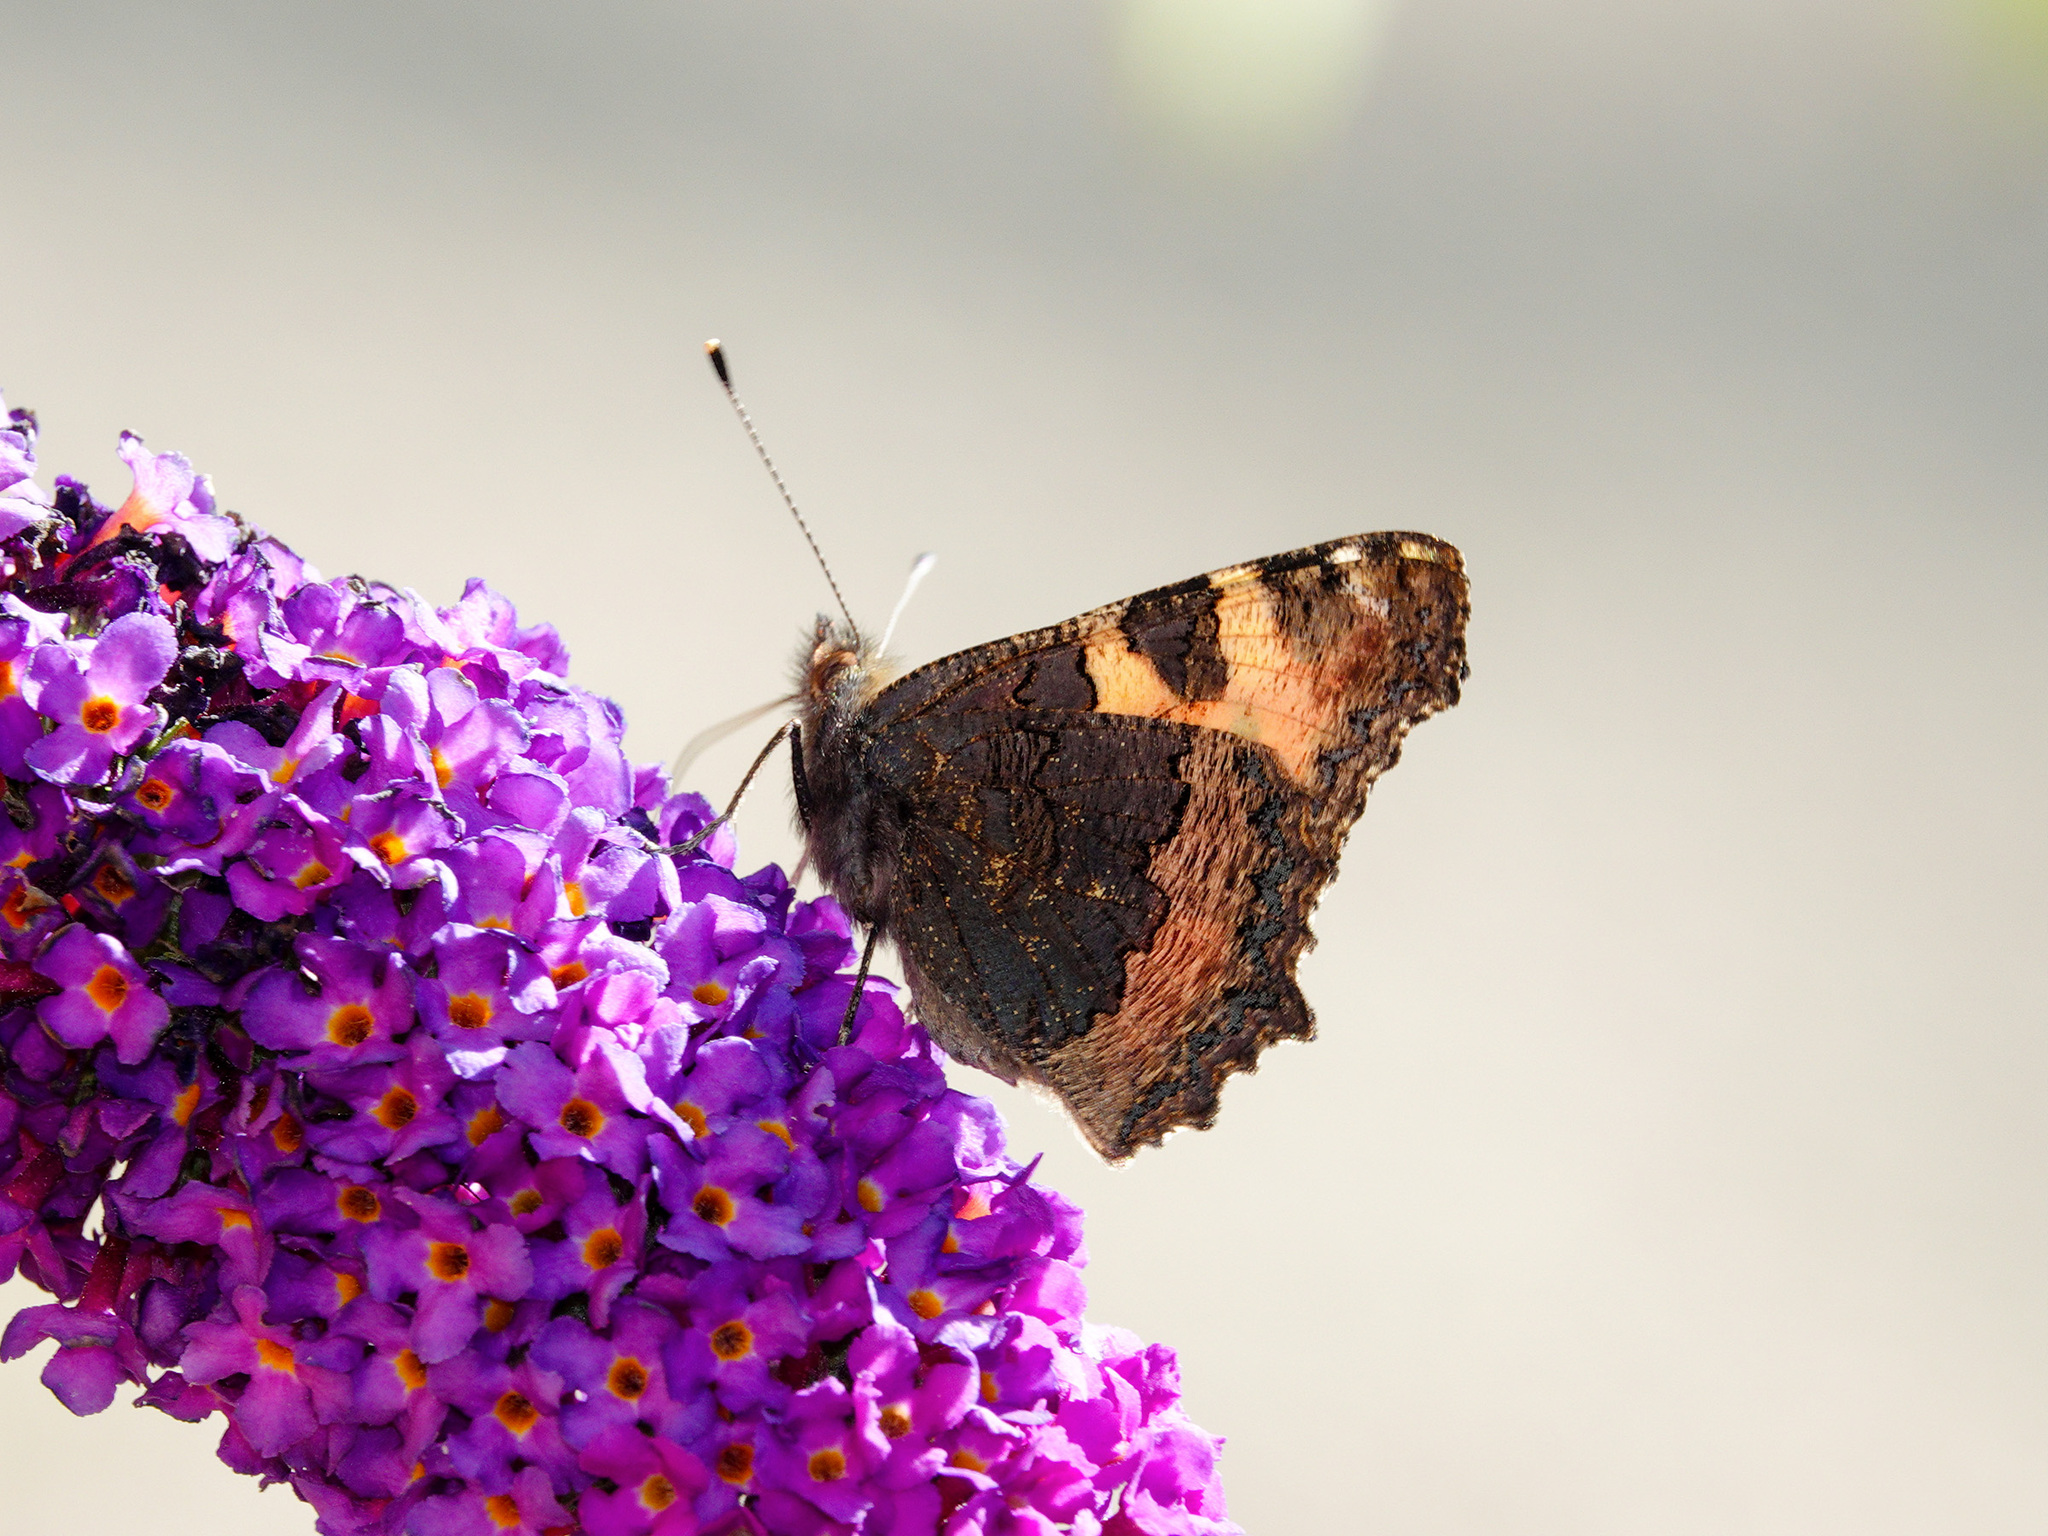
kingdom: Animalia
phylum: Arthropoda
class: Insecta
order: Lepidoptera
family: Nymphalidae
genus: Aglais
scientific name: Aglais urticae
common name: Small tortoiseshell
